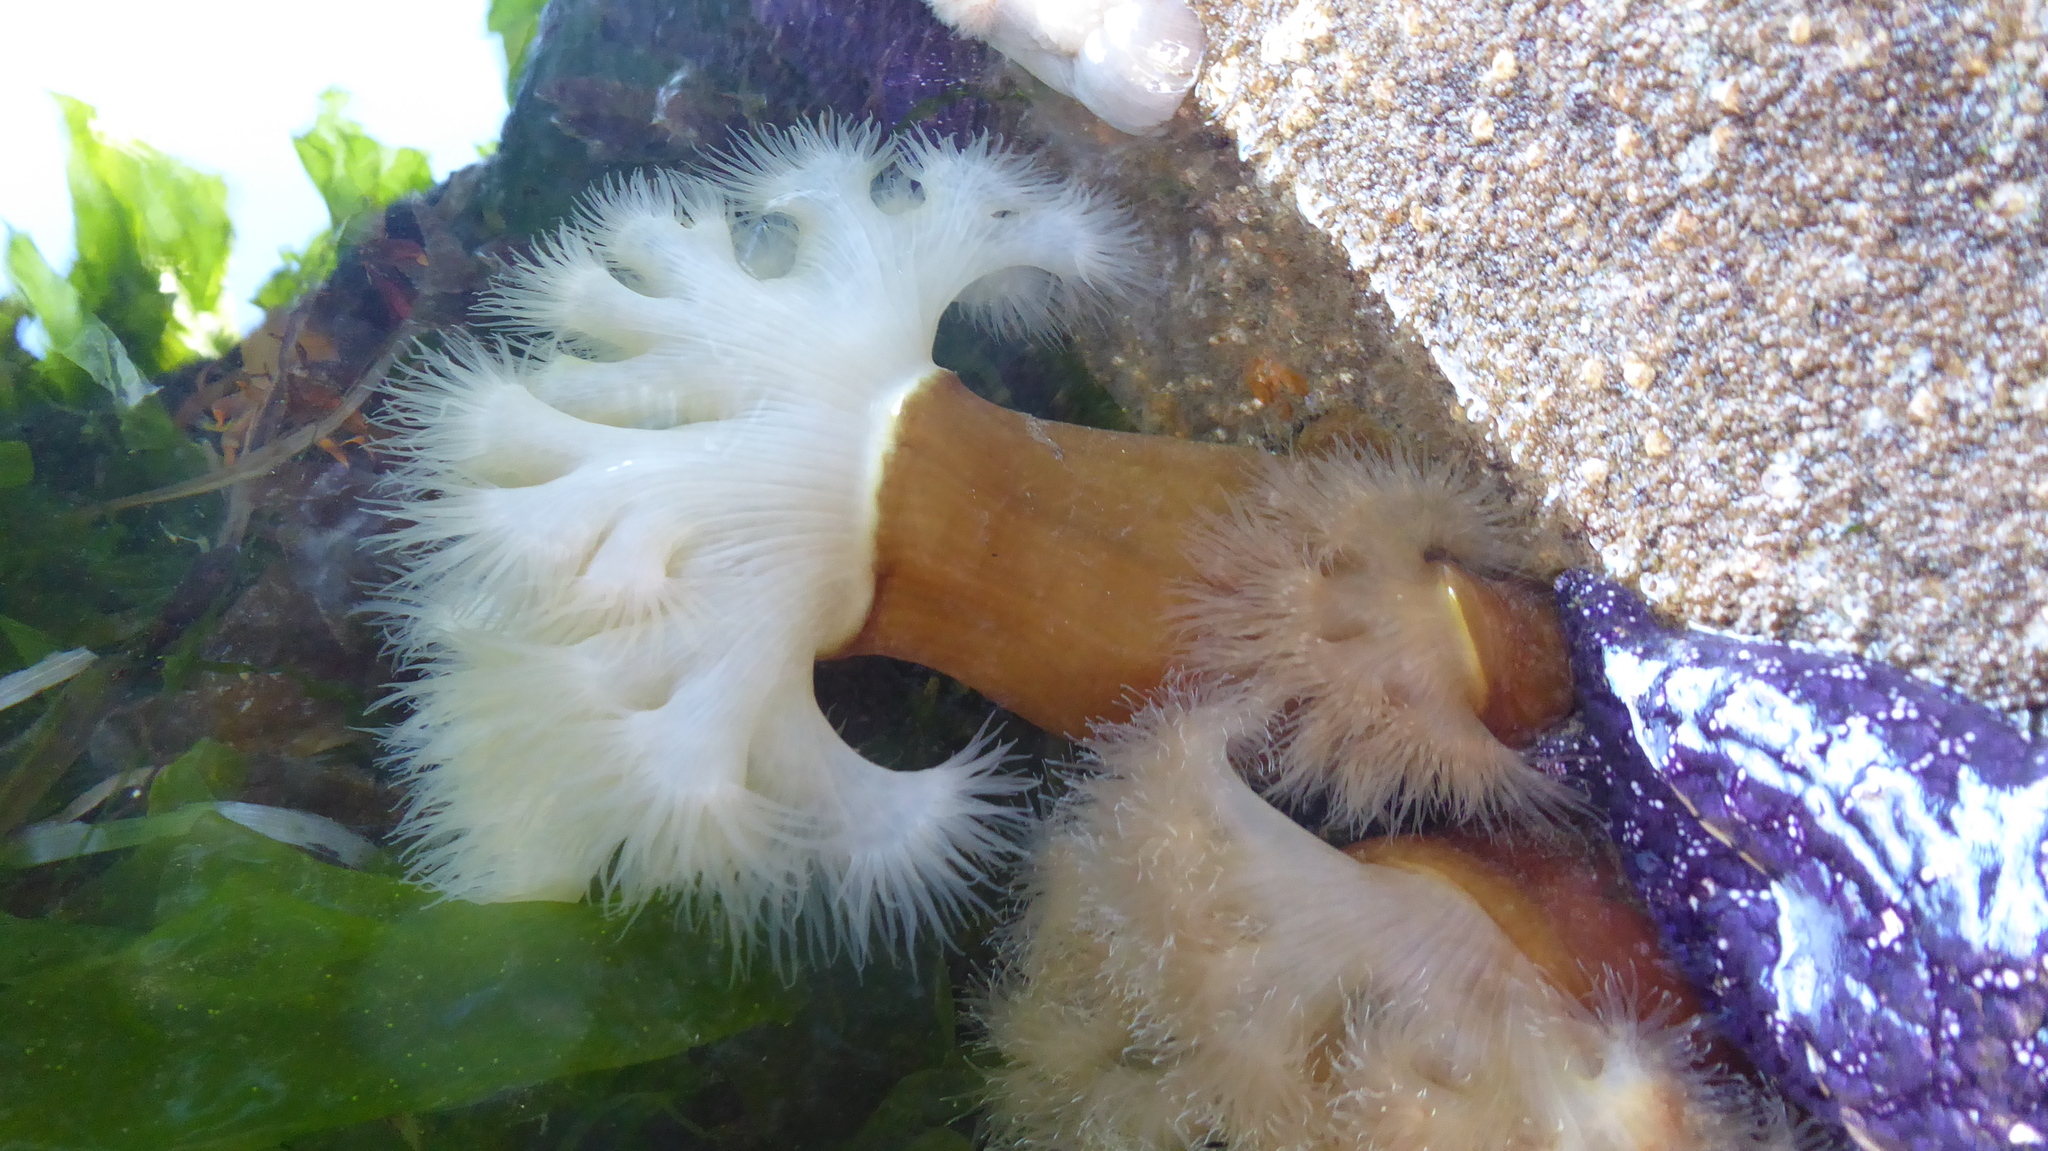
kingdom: Animalia
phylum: Cnidaria
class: Anthozoa
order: Actiniaria
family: Metridiidae
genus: Metridium
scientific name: Metridium farcimen
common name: Gigantic anemone
